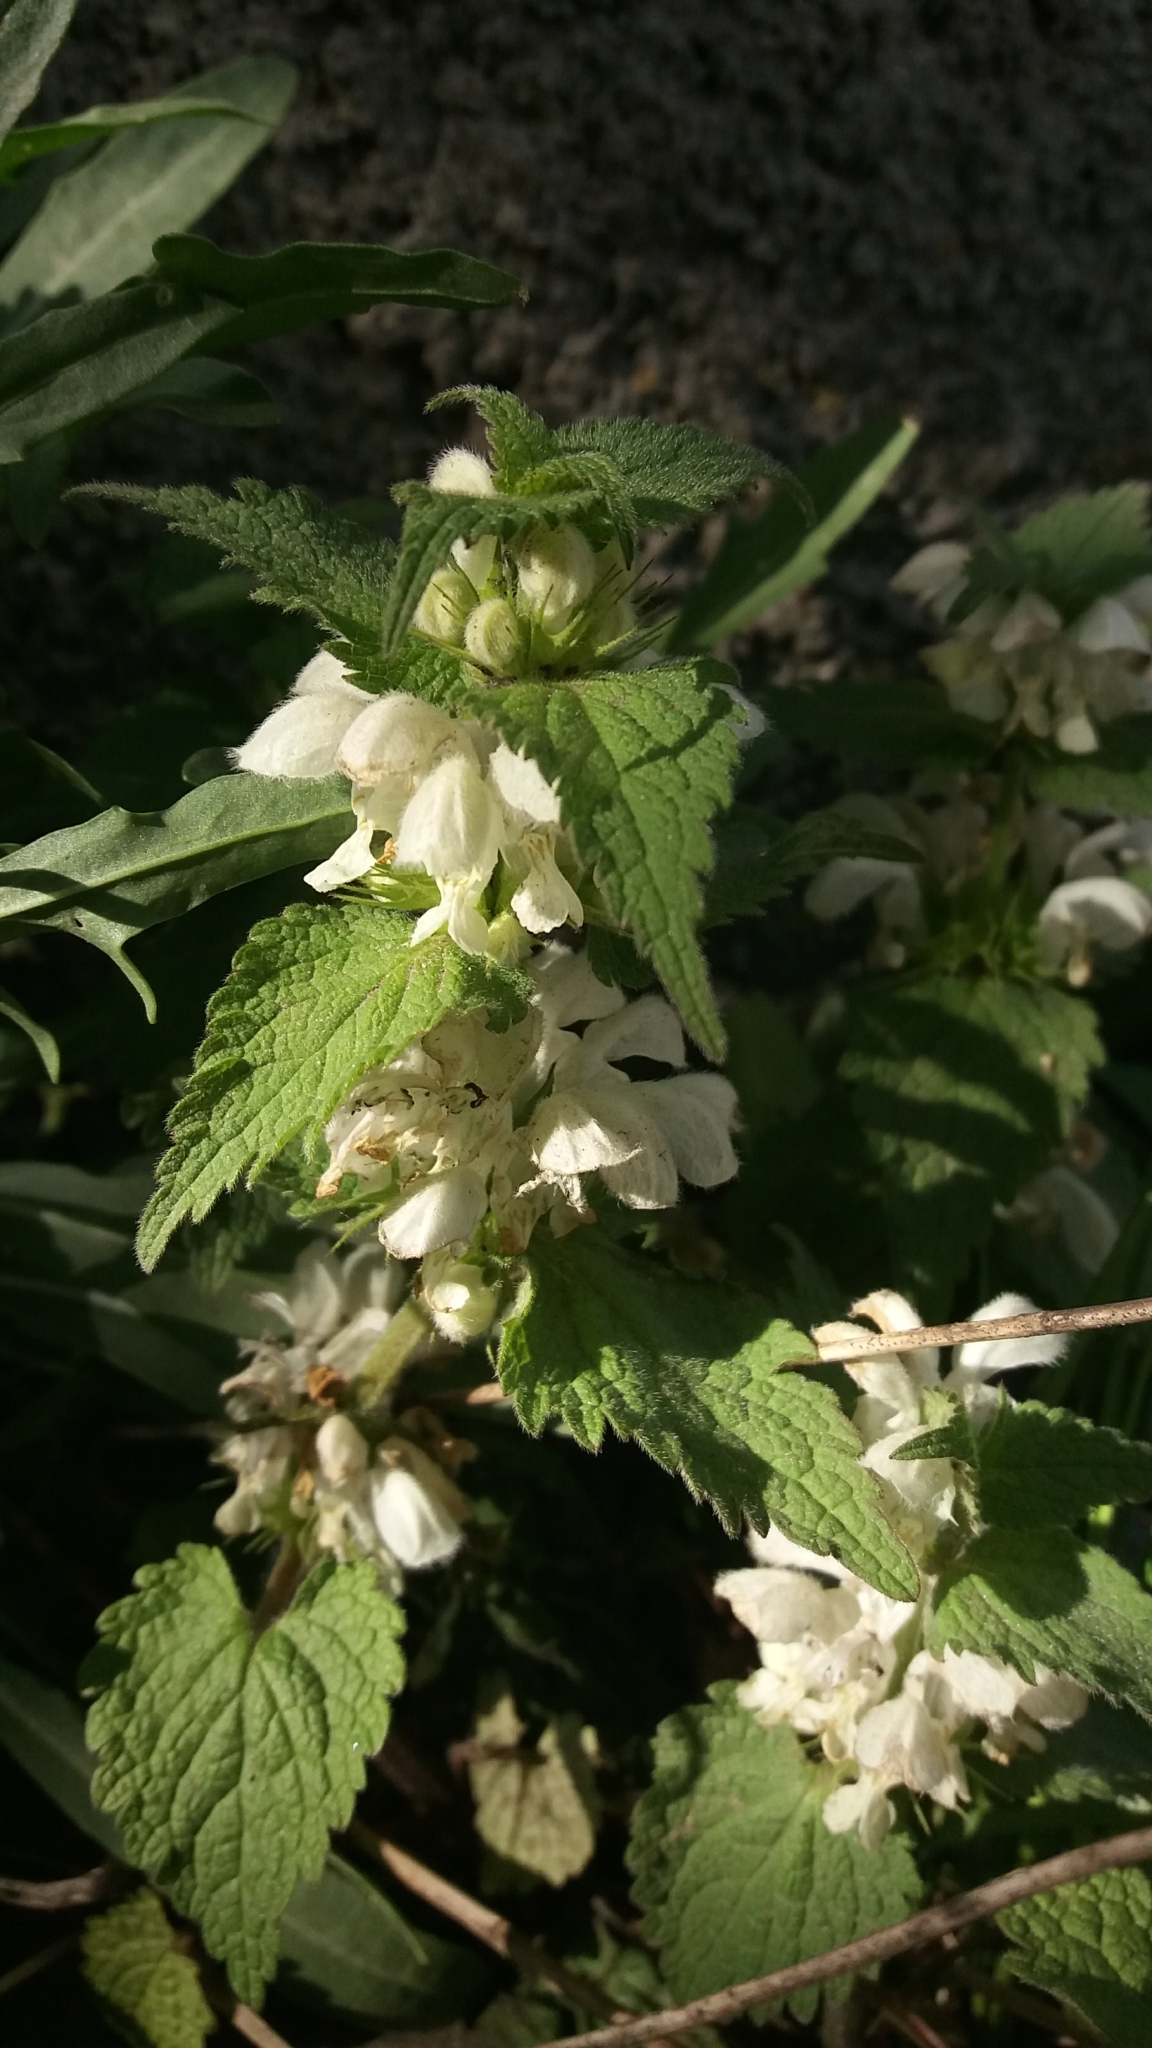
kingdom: Plantae
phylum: Tracheophyta
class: Magnoliopsida
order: Lamiales
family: Lamiaceae
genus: Lamium
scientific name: Lamium album
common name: White dead-nettle
